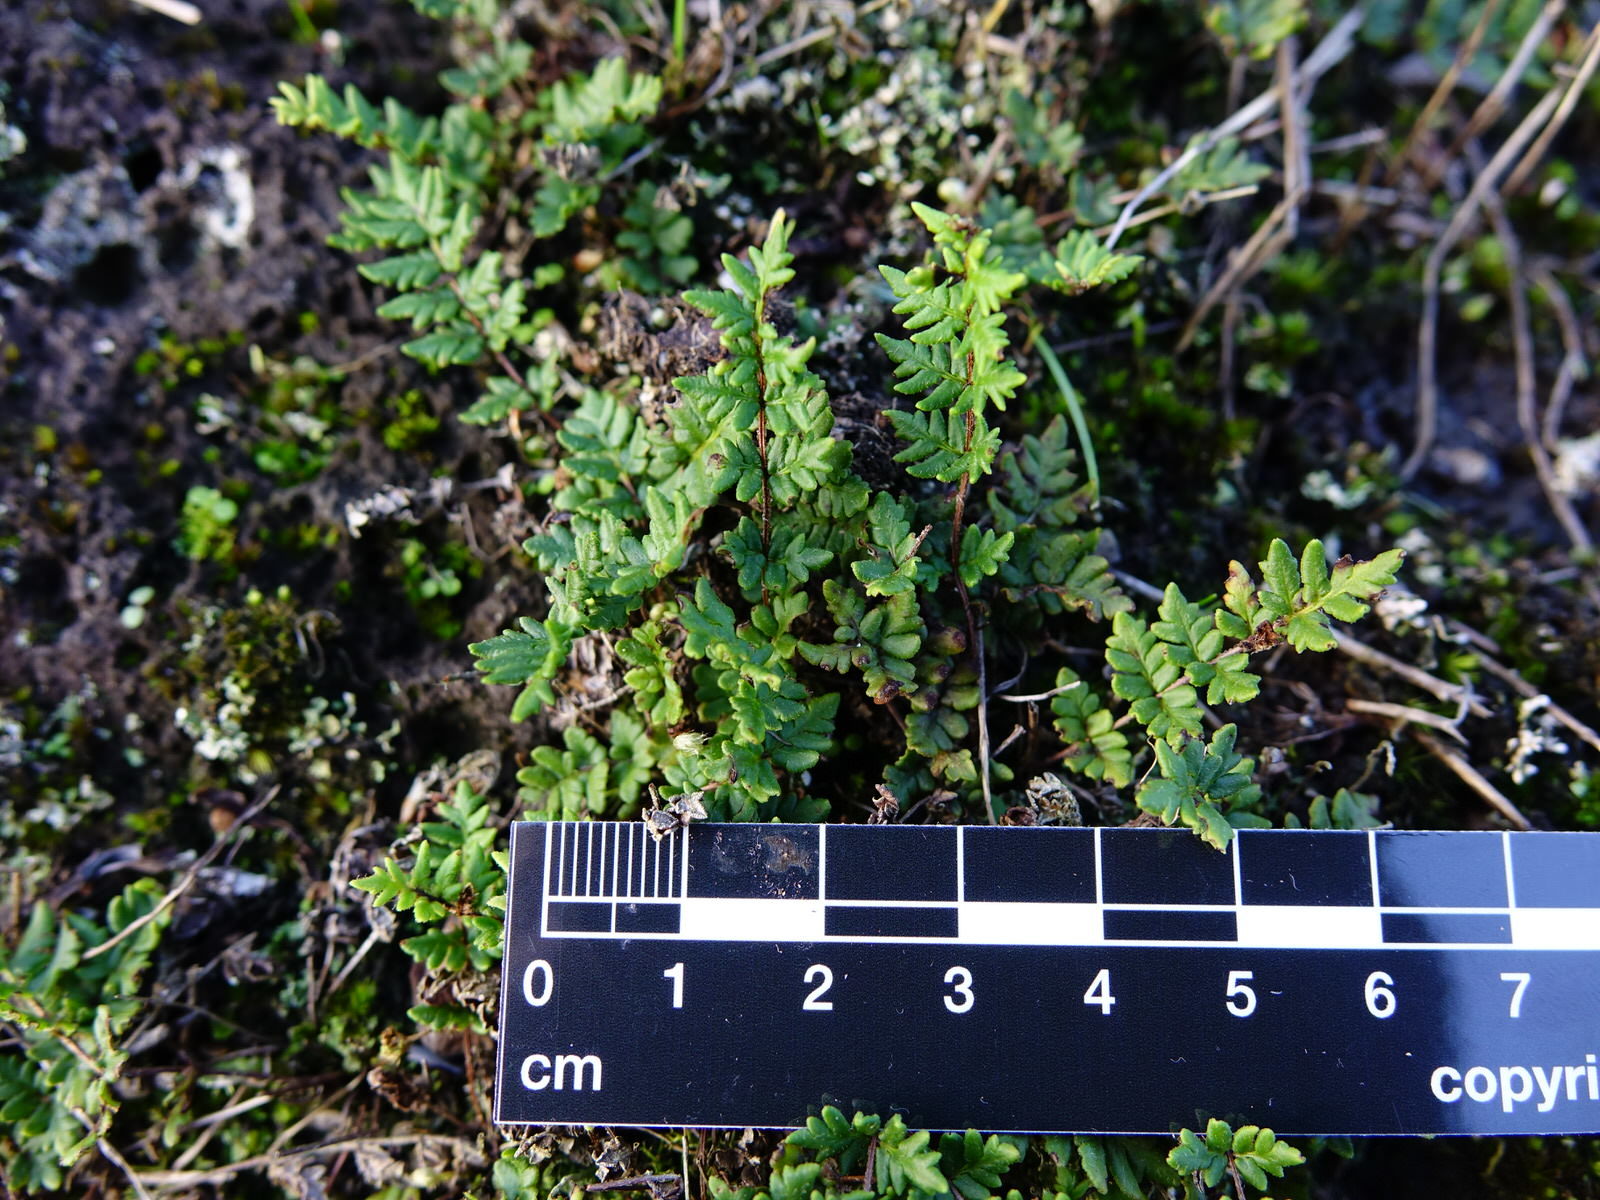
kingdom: Plantae
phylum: Tracheophyta
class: Polypodiopsida
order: Polypodiales
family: Pteridaceae
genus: Cheilanthes
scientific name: Cheilanthes distans
